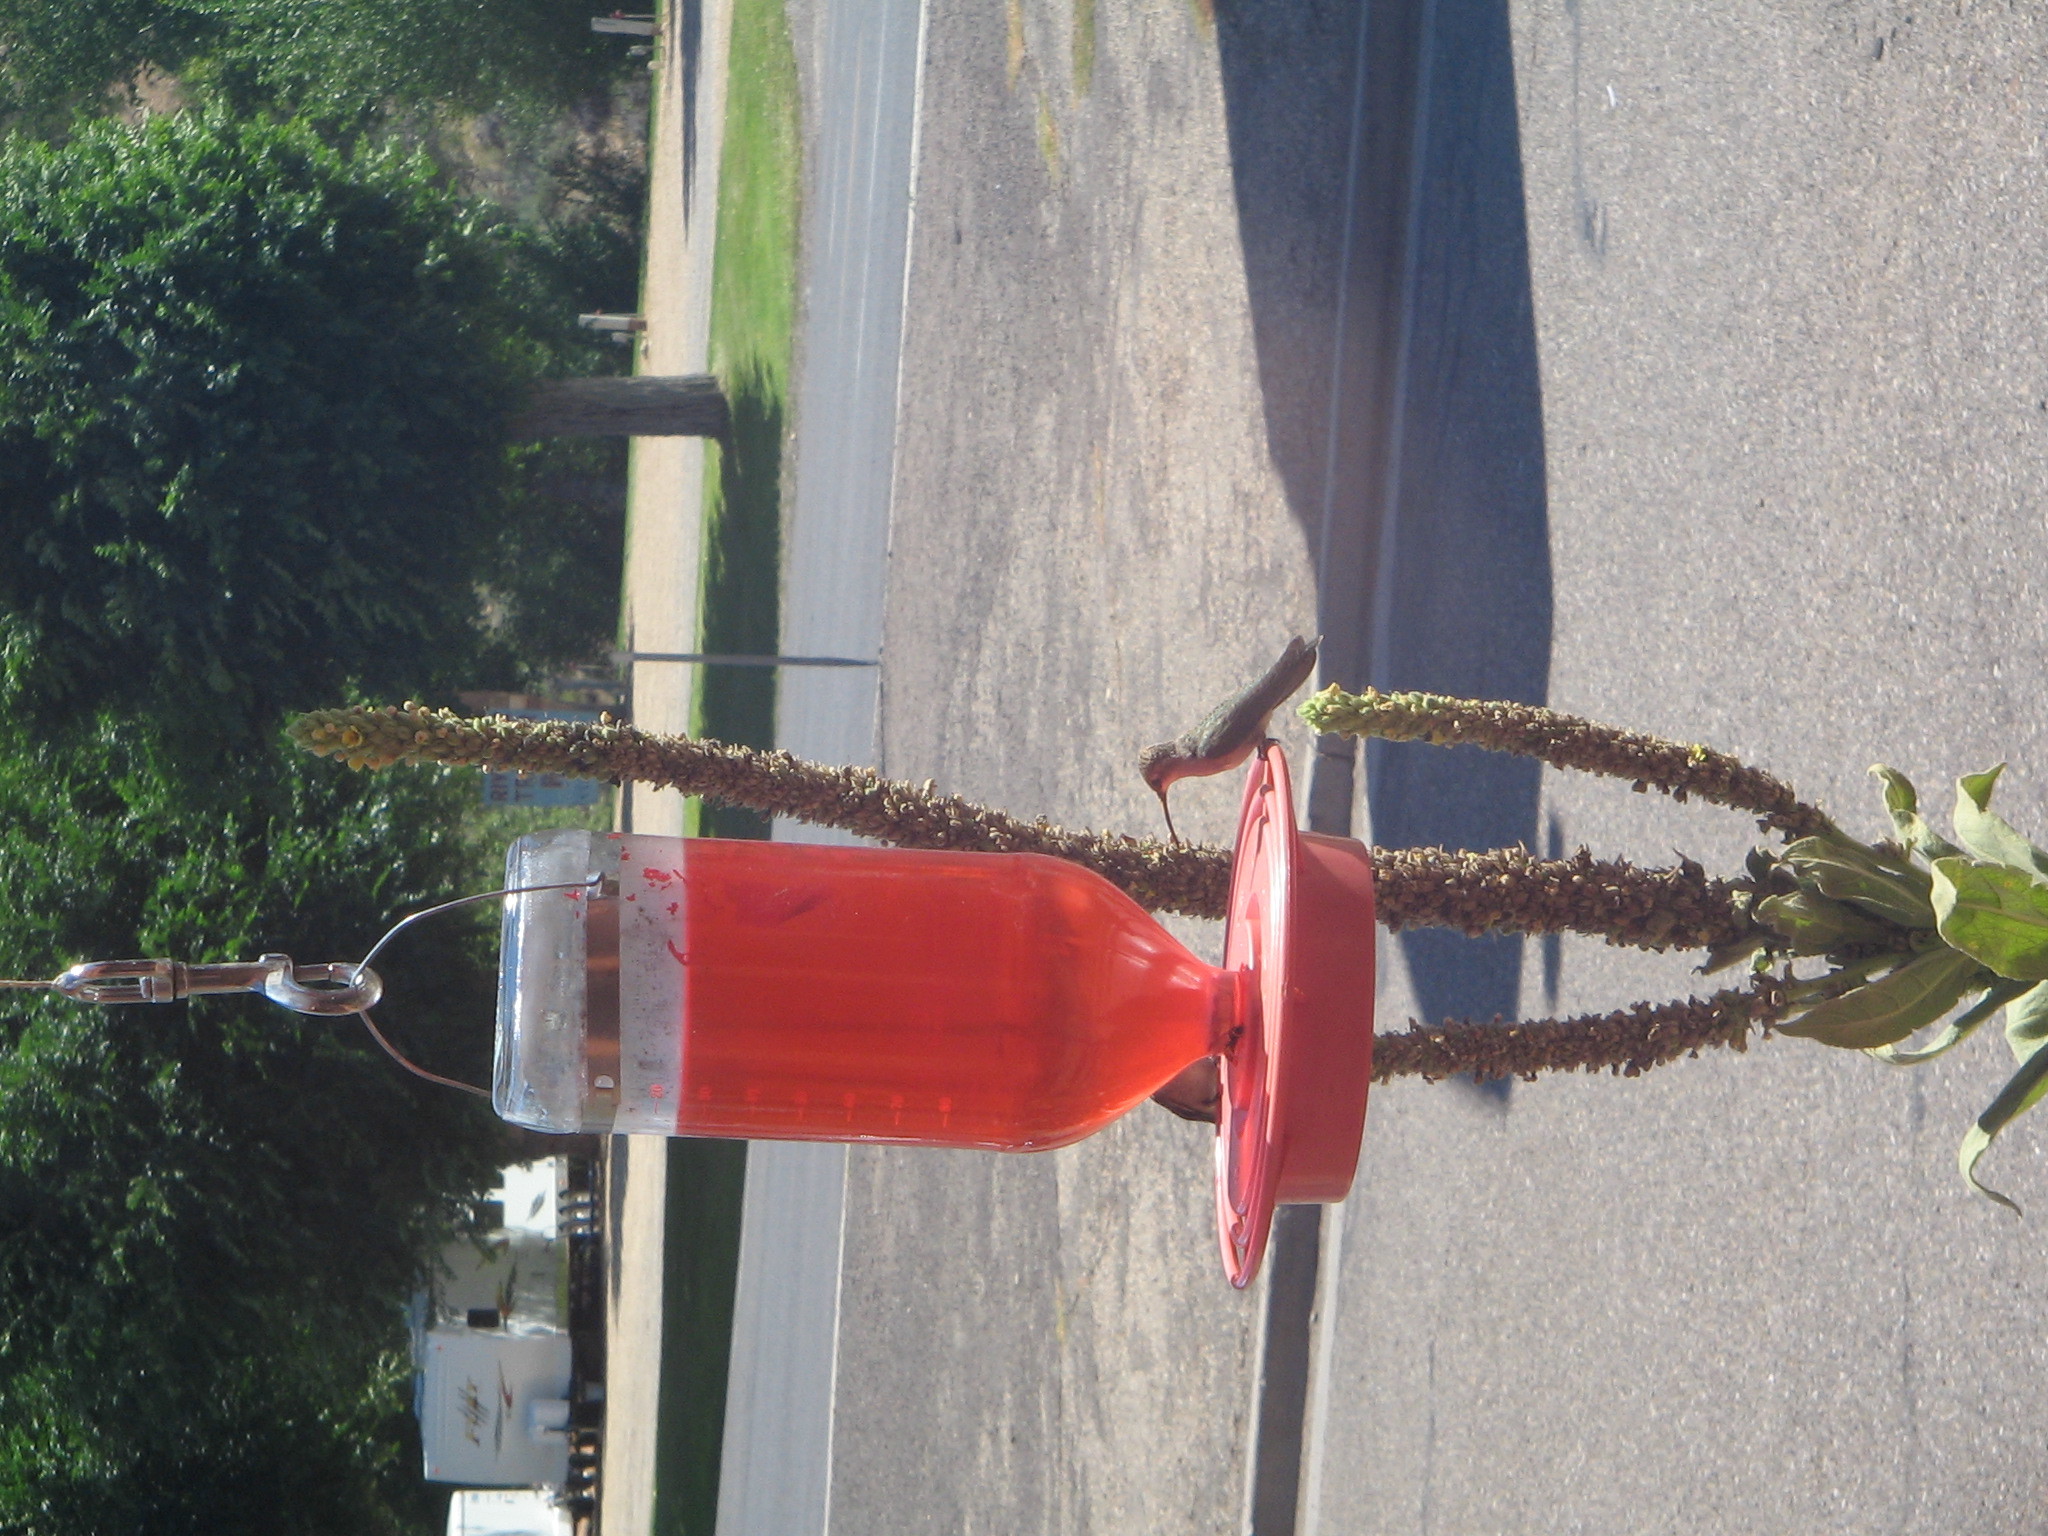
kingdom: Animalia
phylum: Chordata
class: Aves
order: Apodiformes
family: Trochilidae
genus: Archilochus
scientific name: Archilochus alexandri
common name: Black-chinned hummingbird
